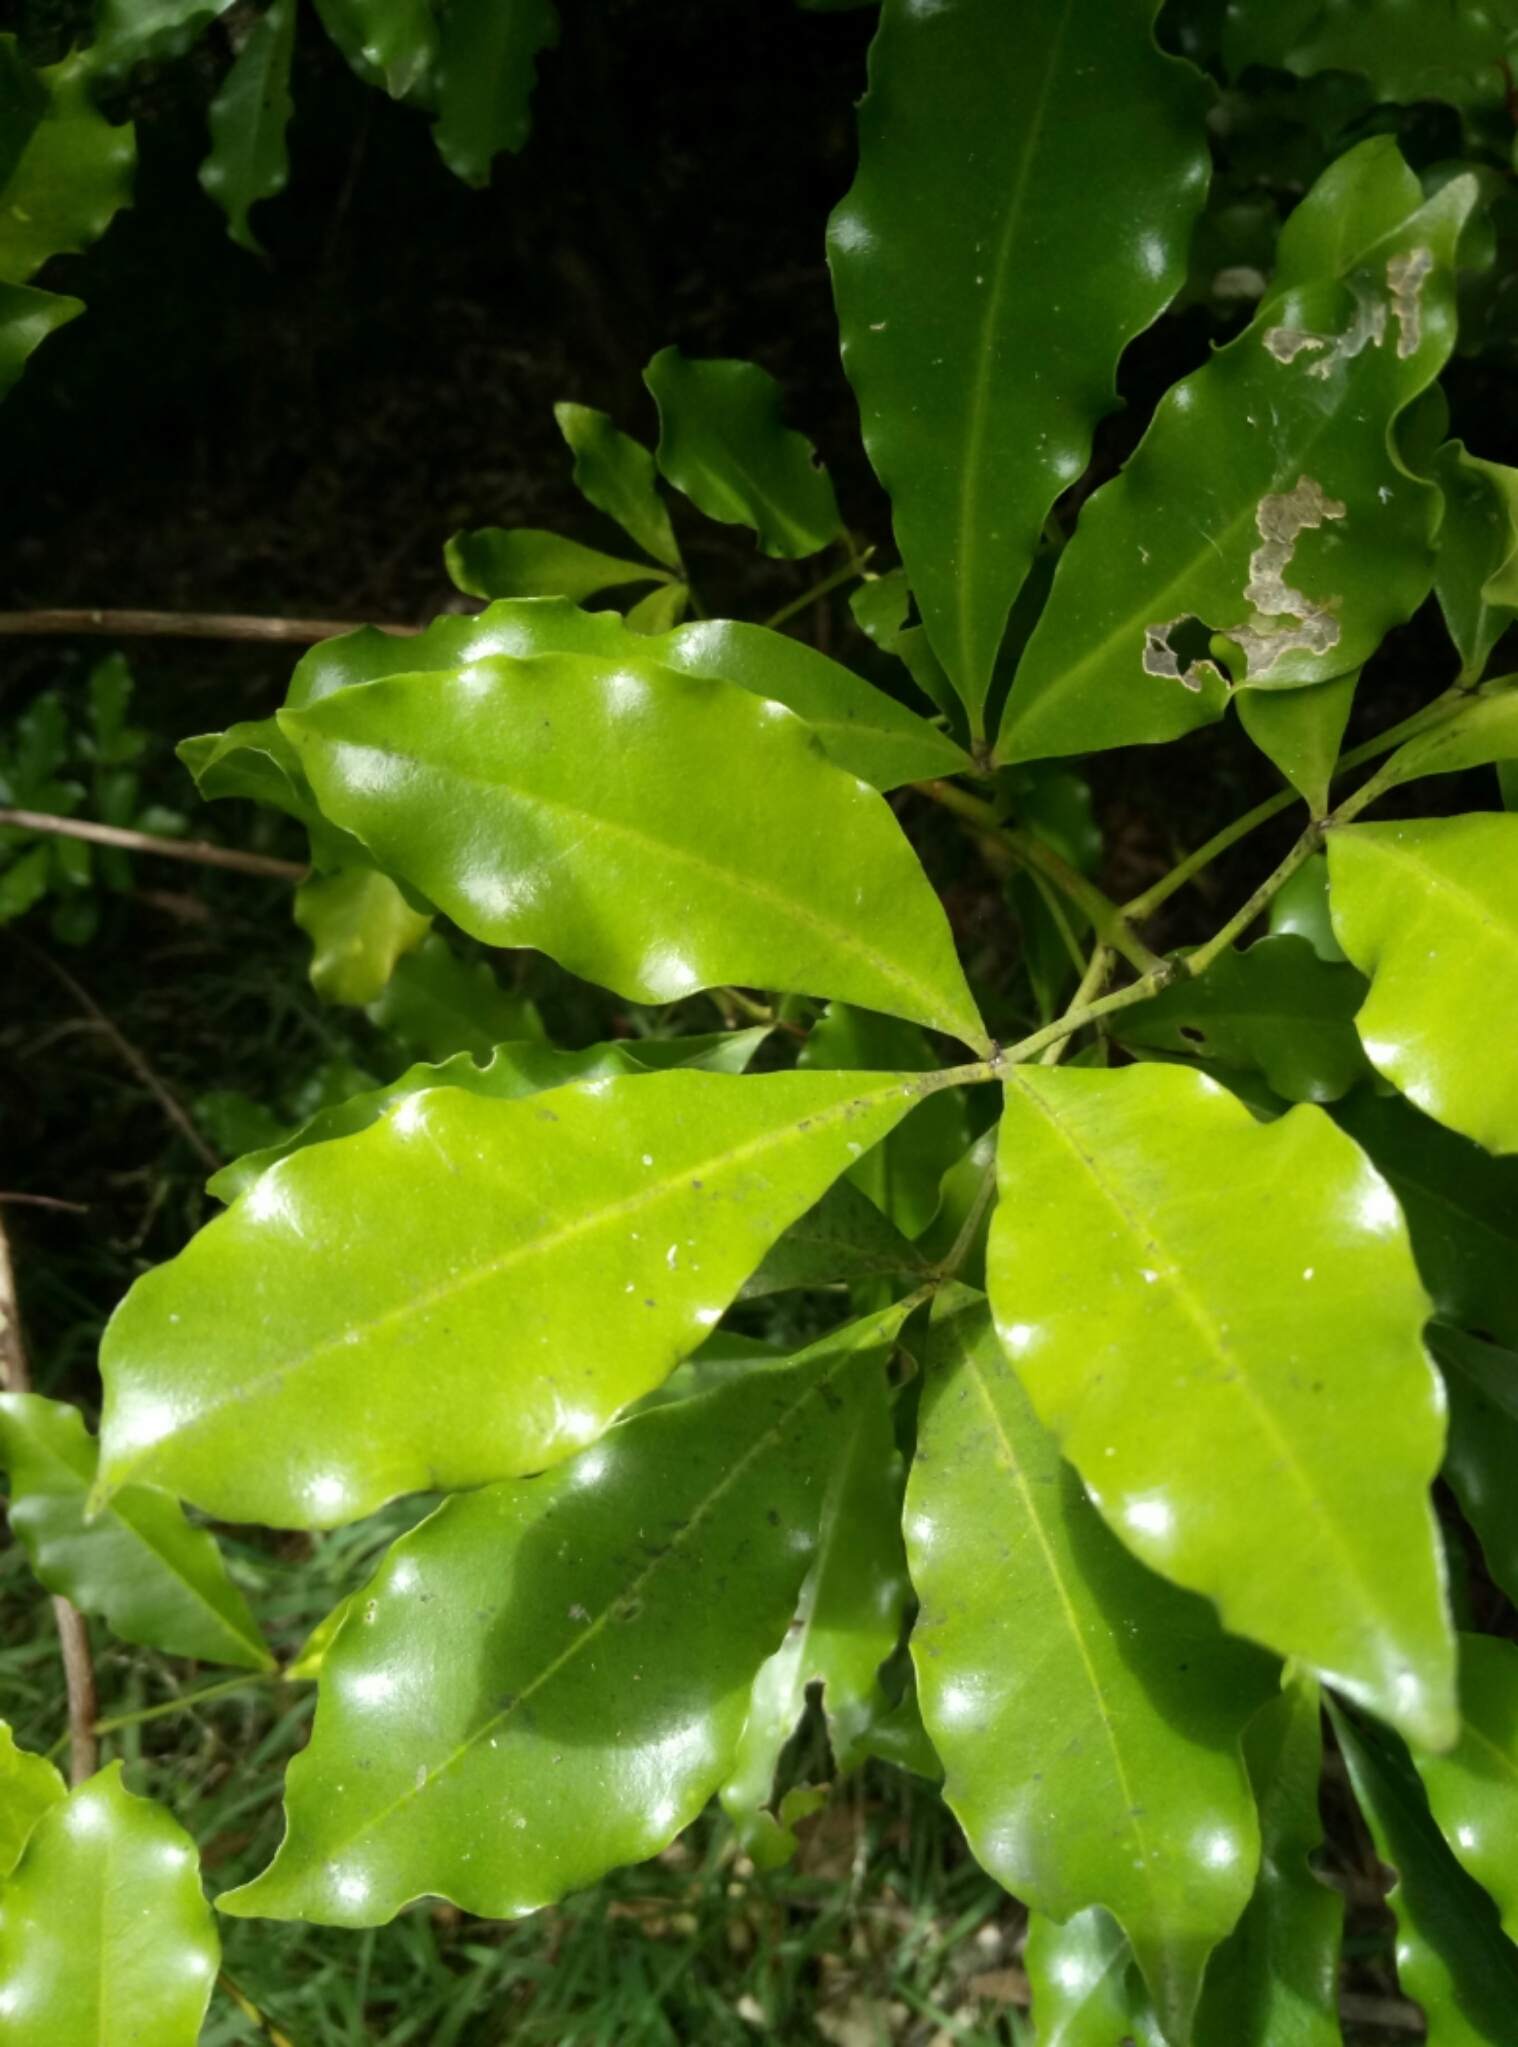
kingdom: Plantae
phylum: Tracheophyta
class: Magnoliopsida
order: Sapindales
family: Rutaceae
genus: Melicope
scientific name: Melicope ternata
